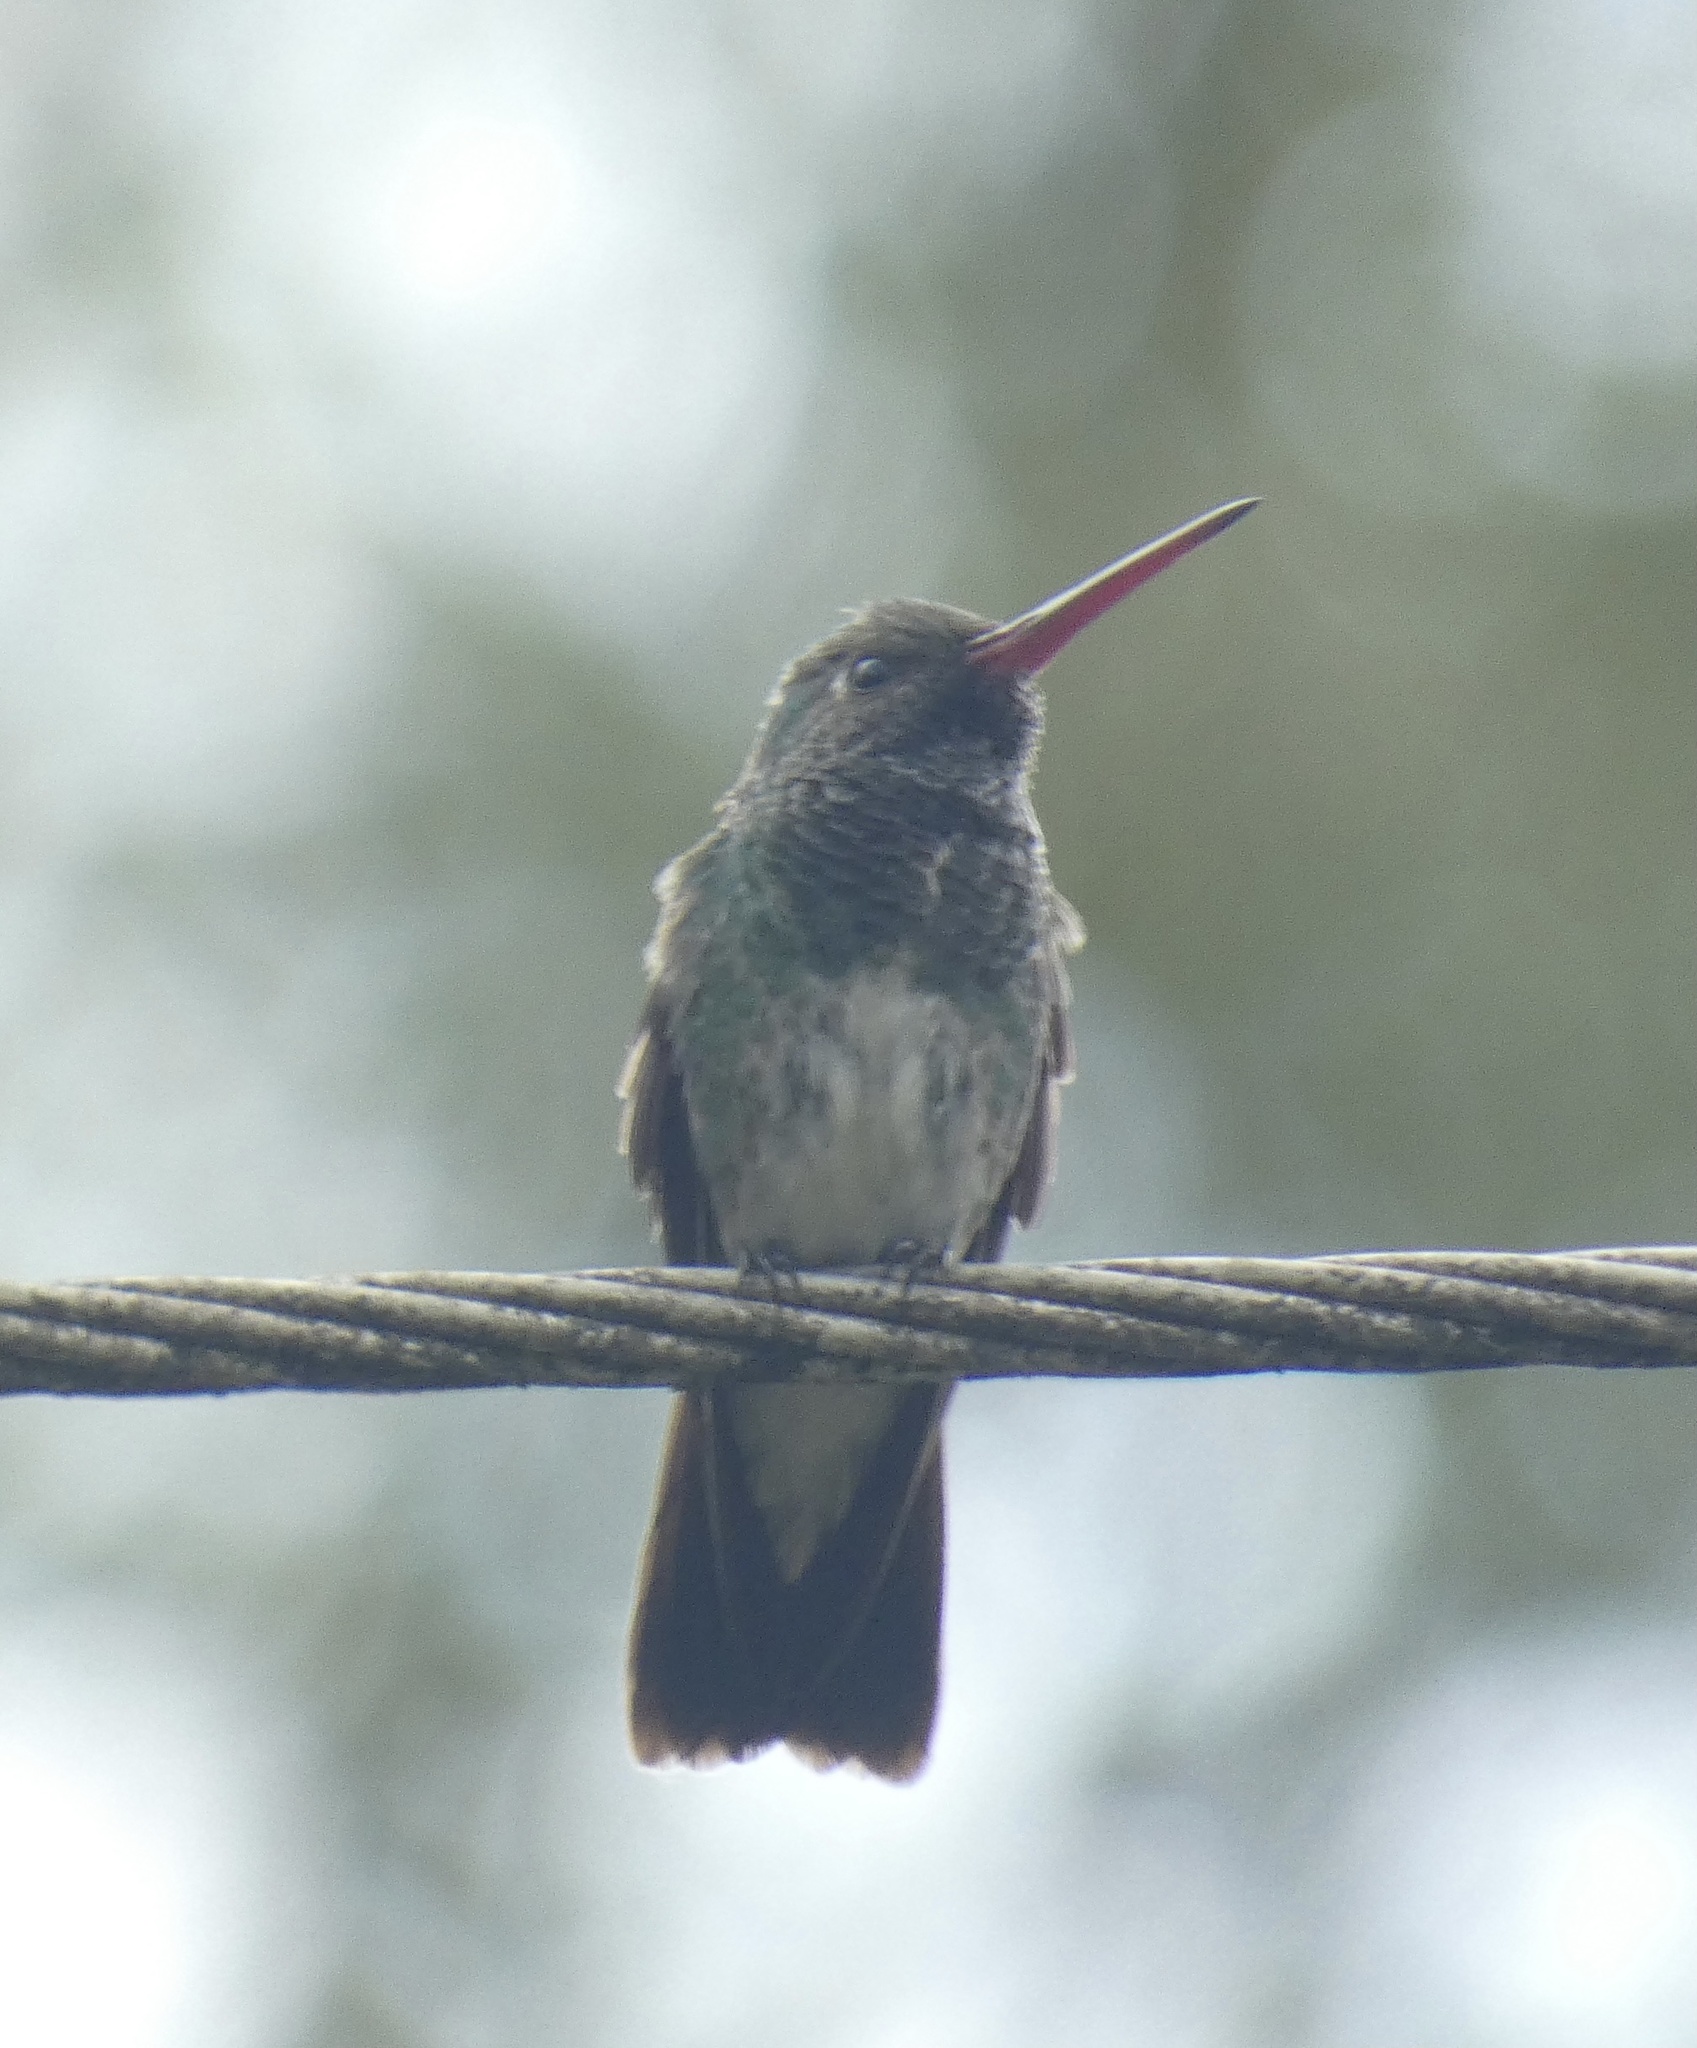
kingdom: Animalia
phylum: Chordata
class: Aves
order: Apodiformes
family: Trochilidae
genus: Chionomesa
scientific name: Chionomesa fimbriata
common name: Glittering-throated emerald
